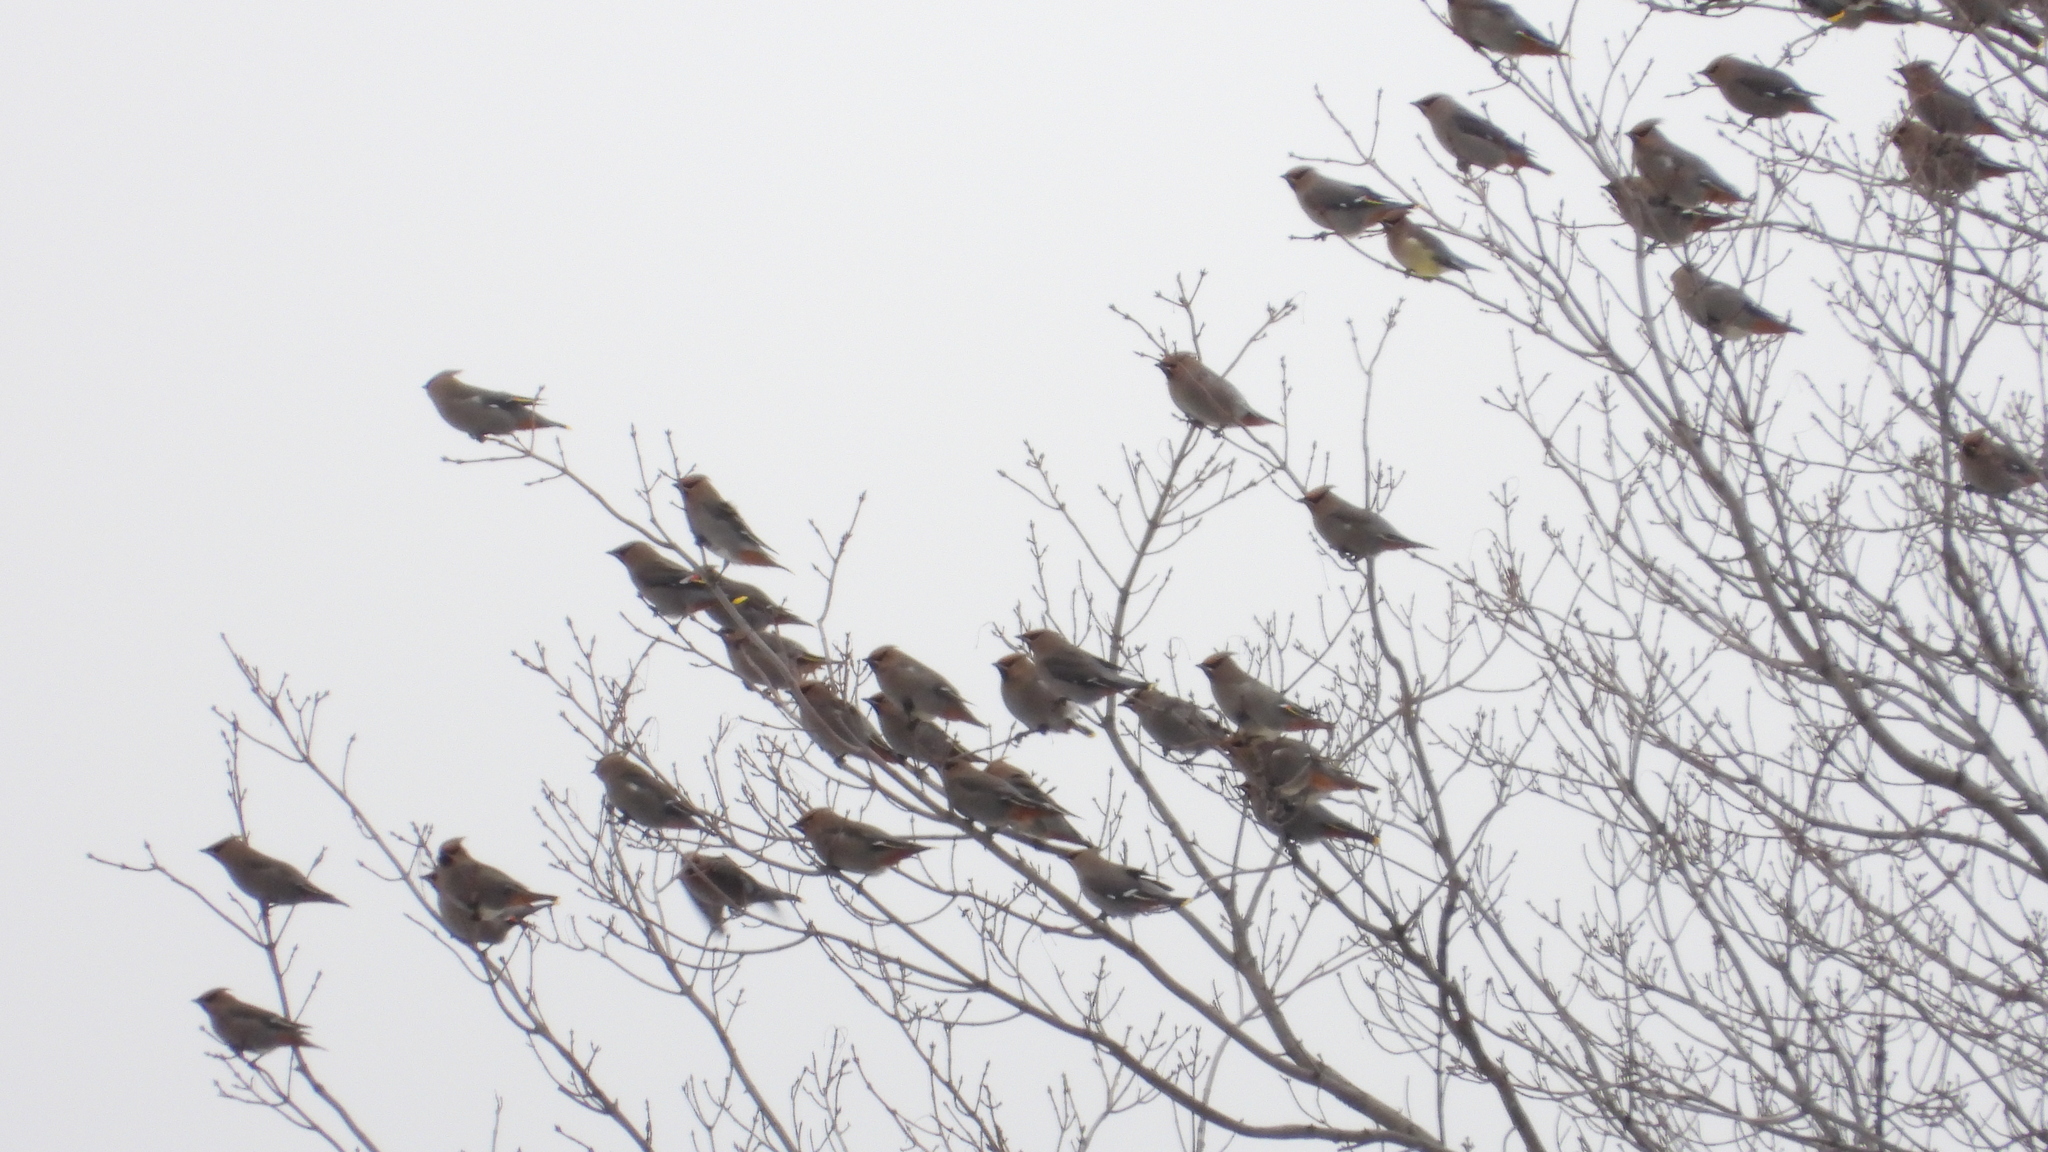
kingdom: Animalia
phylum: Chordata
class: Aves
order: Passeriformes
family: Bombycillidae
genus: Bombycilla
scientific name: Bombycilla garrulus
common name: Bohemian waxwing
